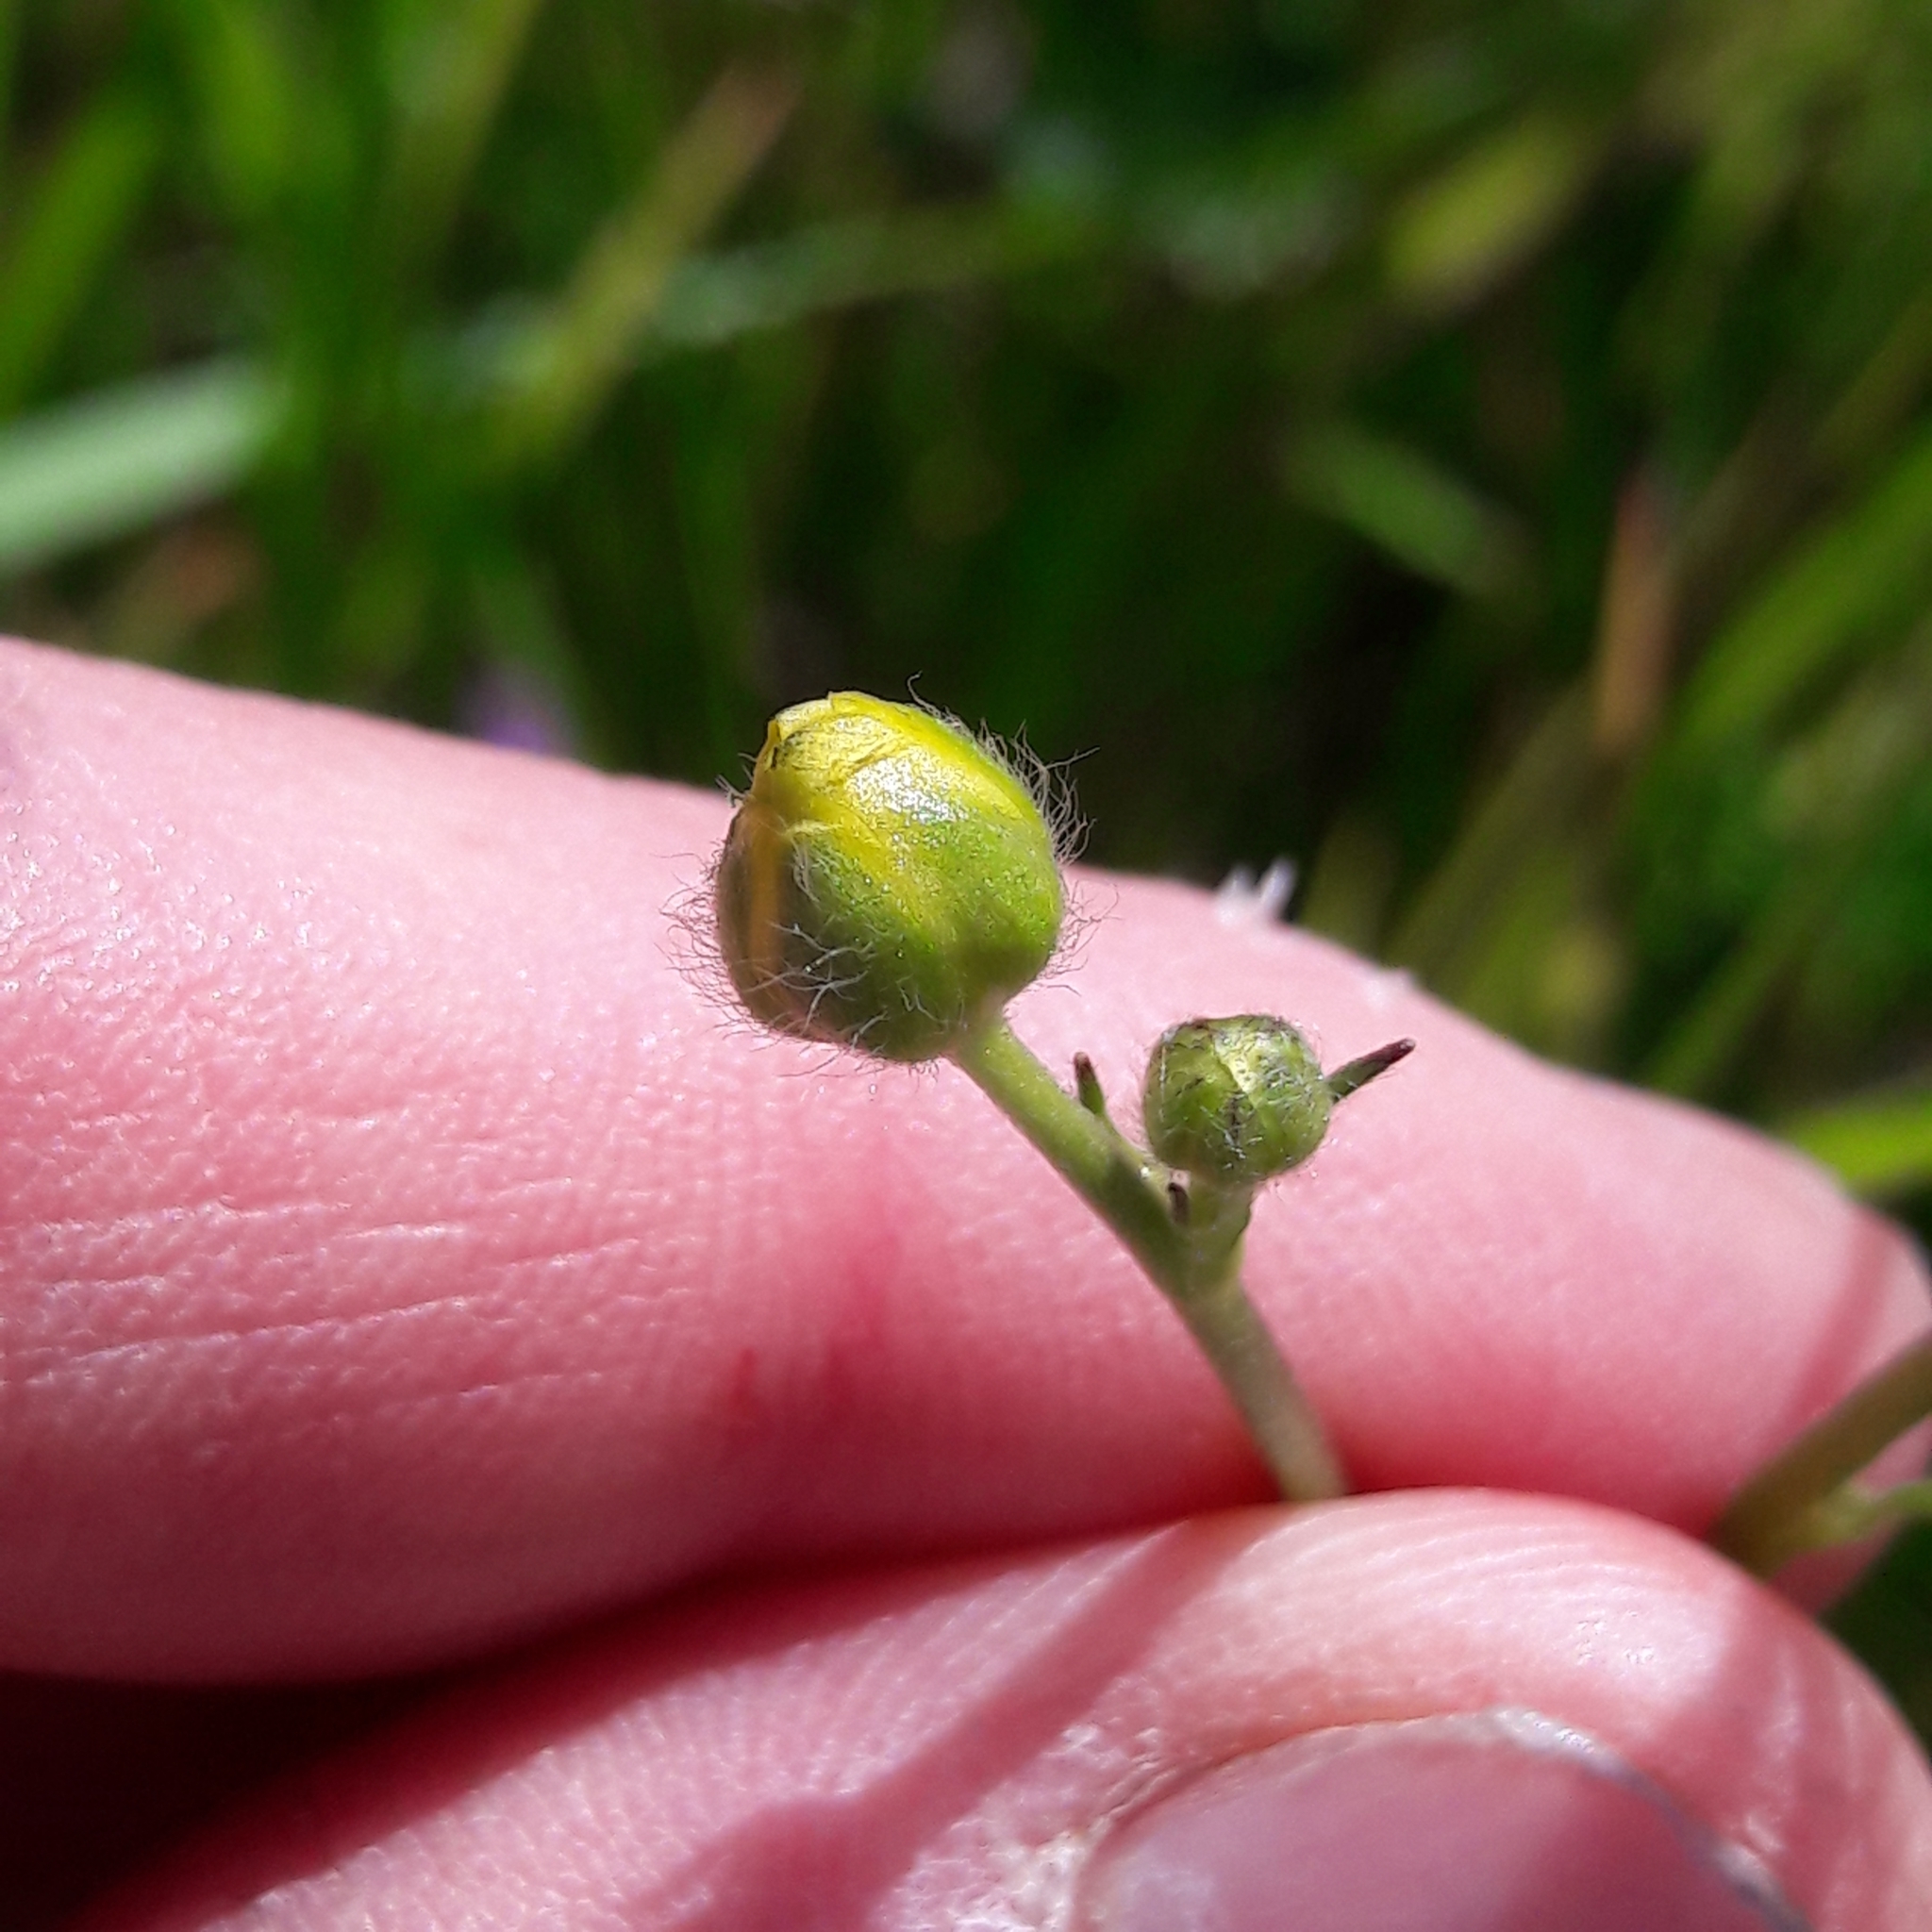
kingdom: Plantae
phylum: Tracheophyta
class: Magnoliopsida
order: Ranunculales
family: Ranunculaceae
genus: Ranunculus
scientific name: Ranunculus acris
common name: Meadow buttercup
